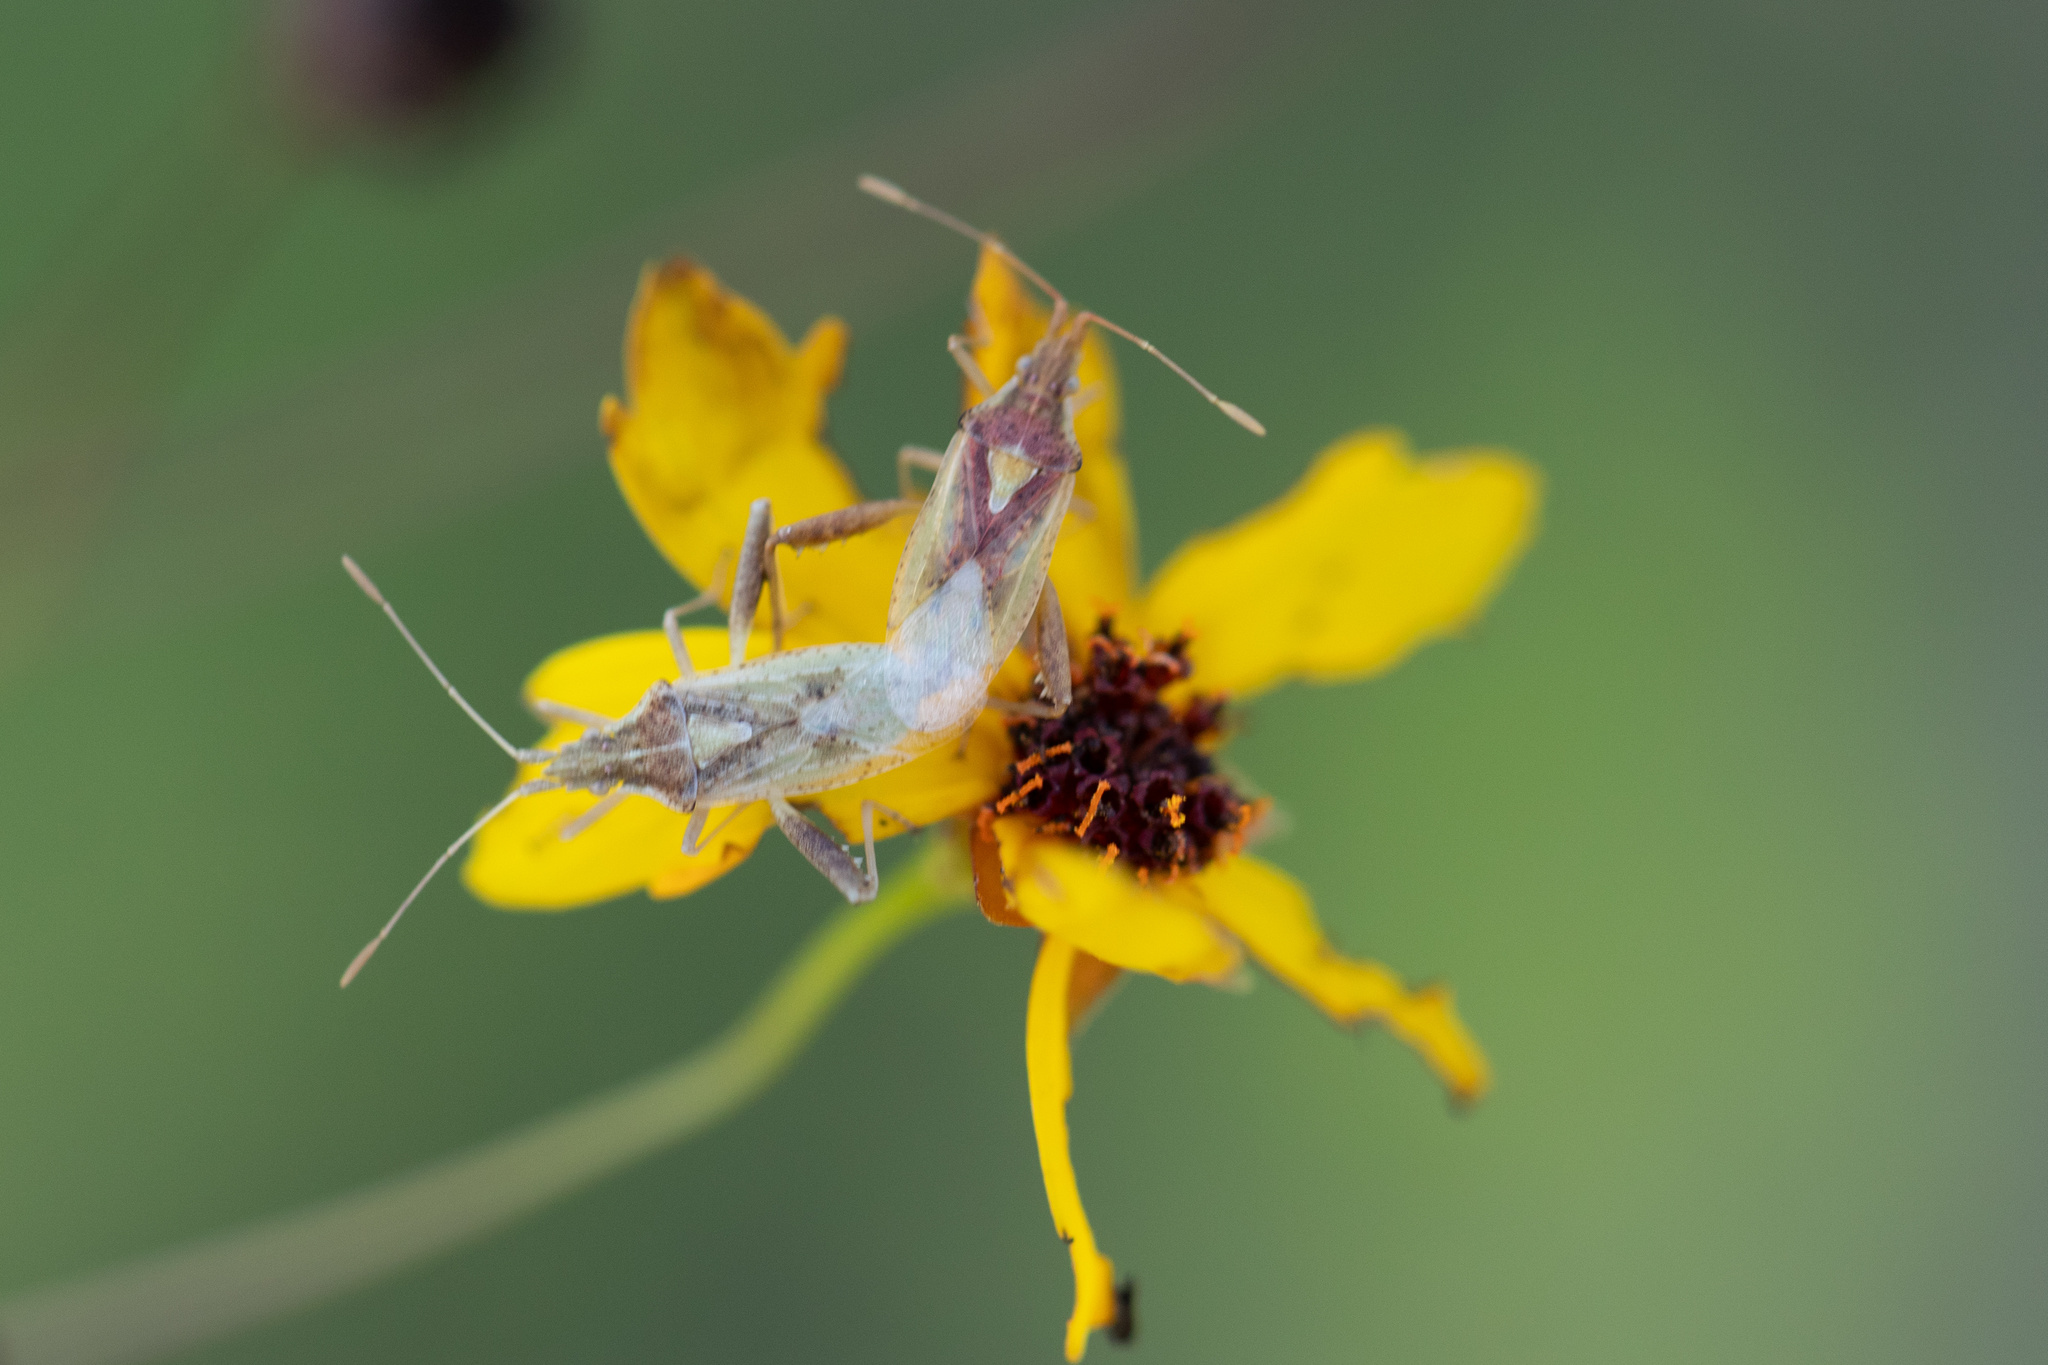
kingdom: Animalia
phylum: Arthropoda
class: Insecta
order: Hemiptera
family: Rhopalidae
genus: Harmostes
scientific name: Harmostes reflexulus
